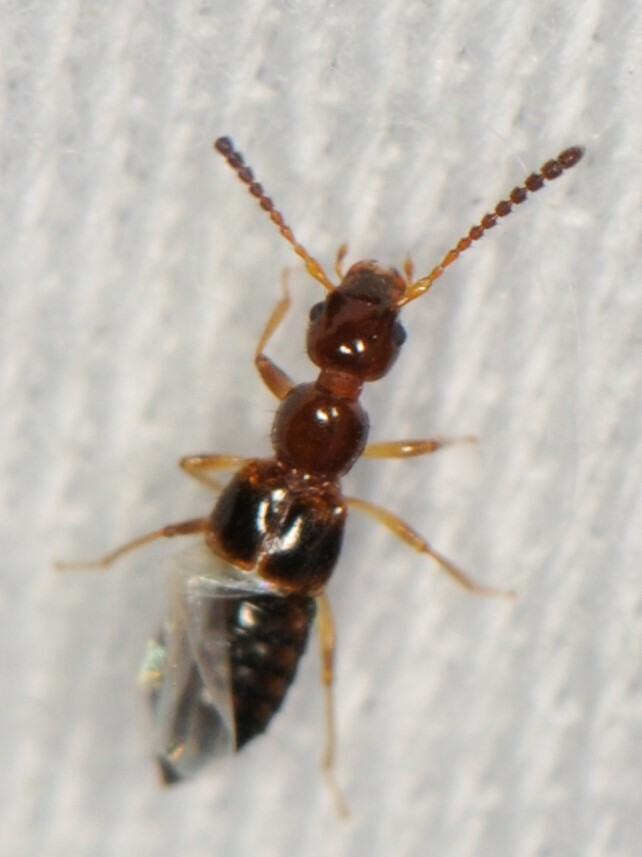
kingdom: Animalia
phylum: Arthropoda
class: Insecta
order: Coleoptera
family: Staphylinidae
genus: Apocellus
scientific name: Apocellus
